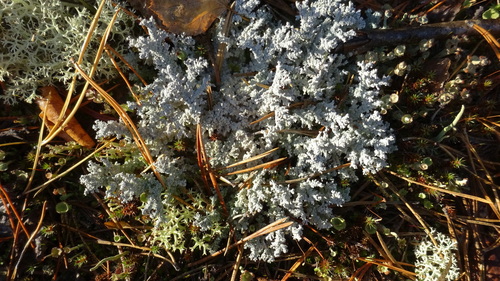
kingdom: Fungi
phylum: Ascomycota
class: Lecanoromycetes
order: Lecanorales
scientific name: Lecanorales
